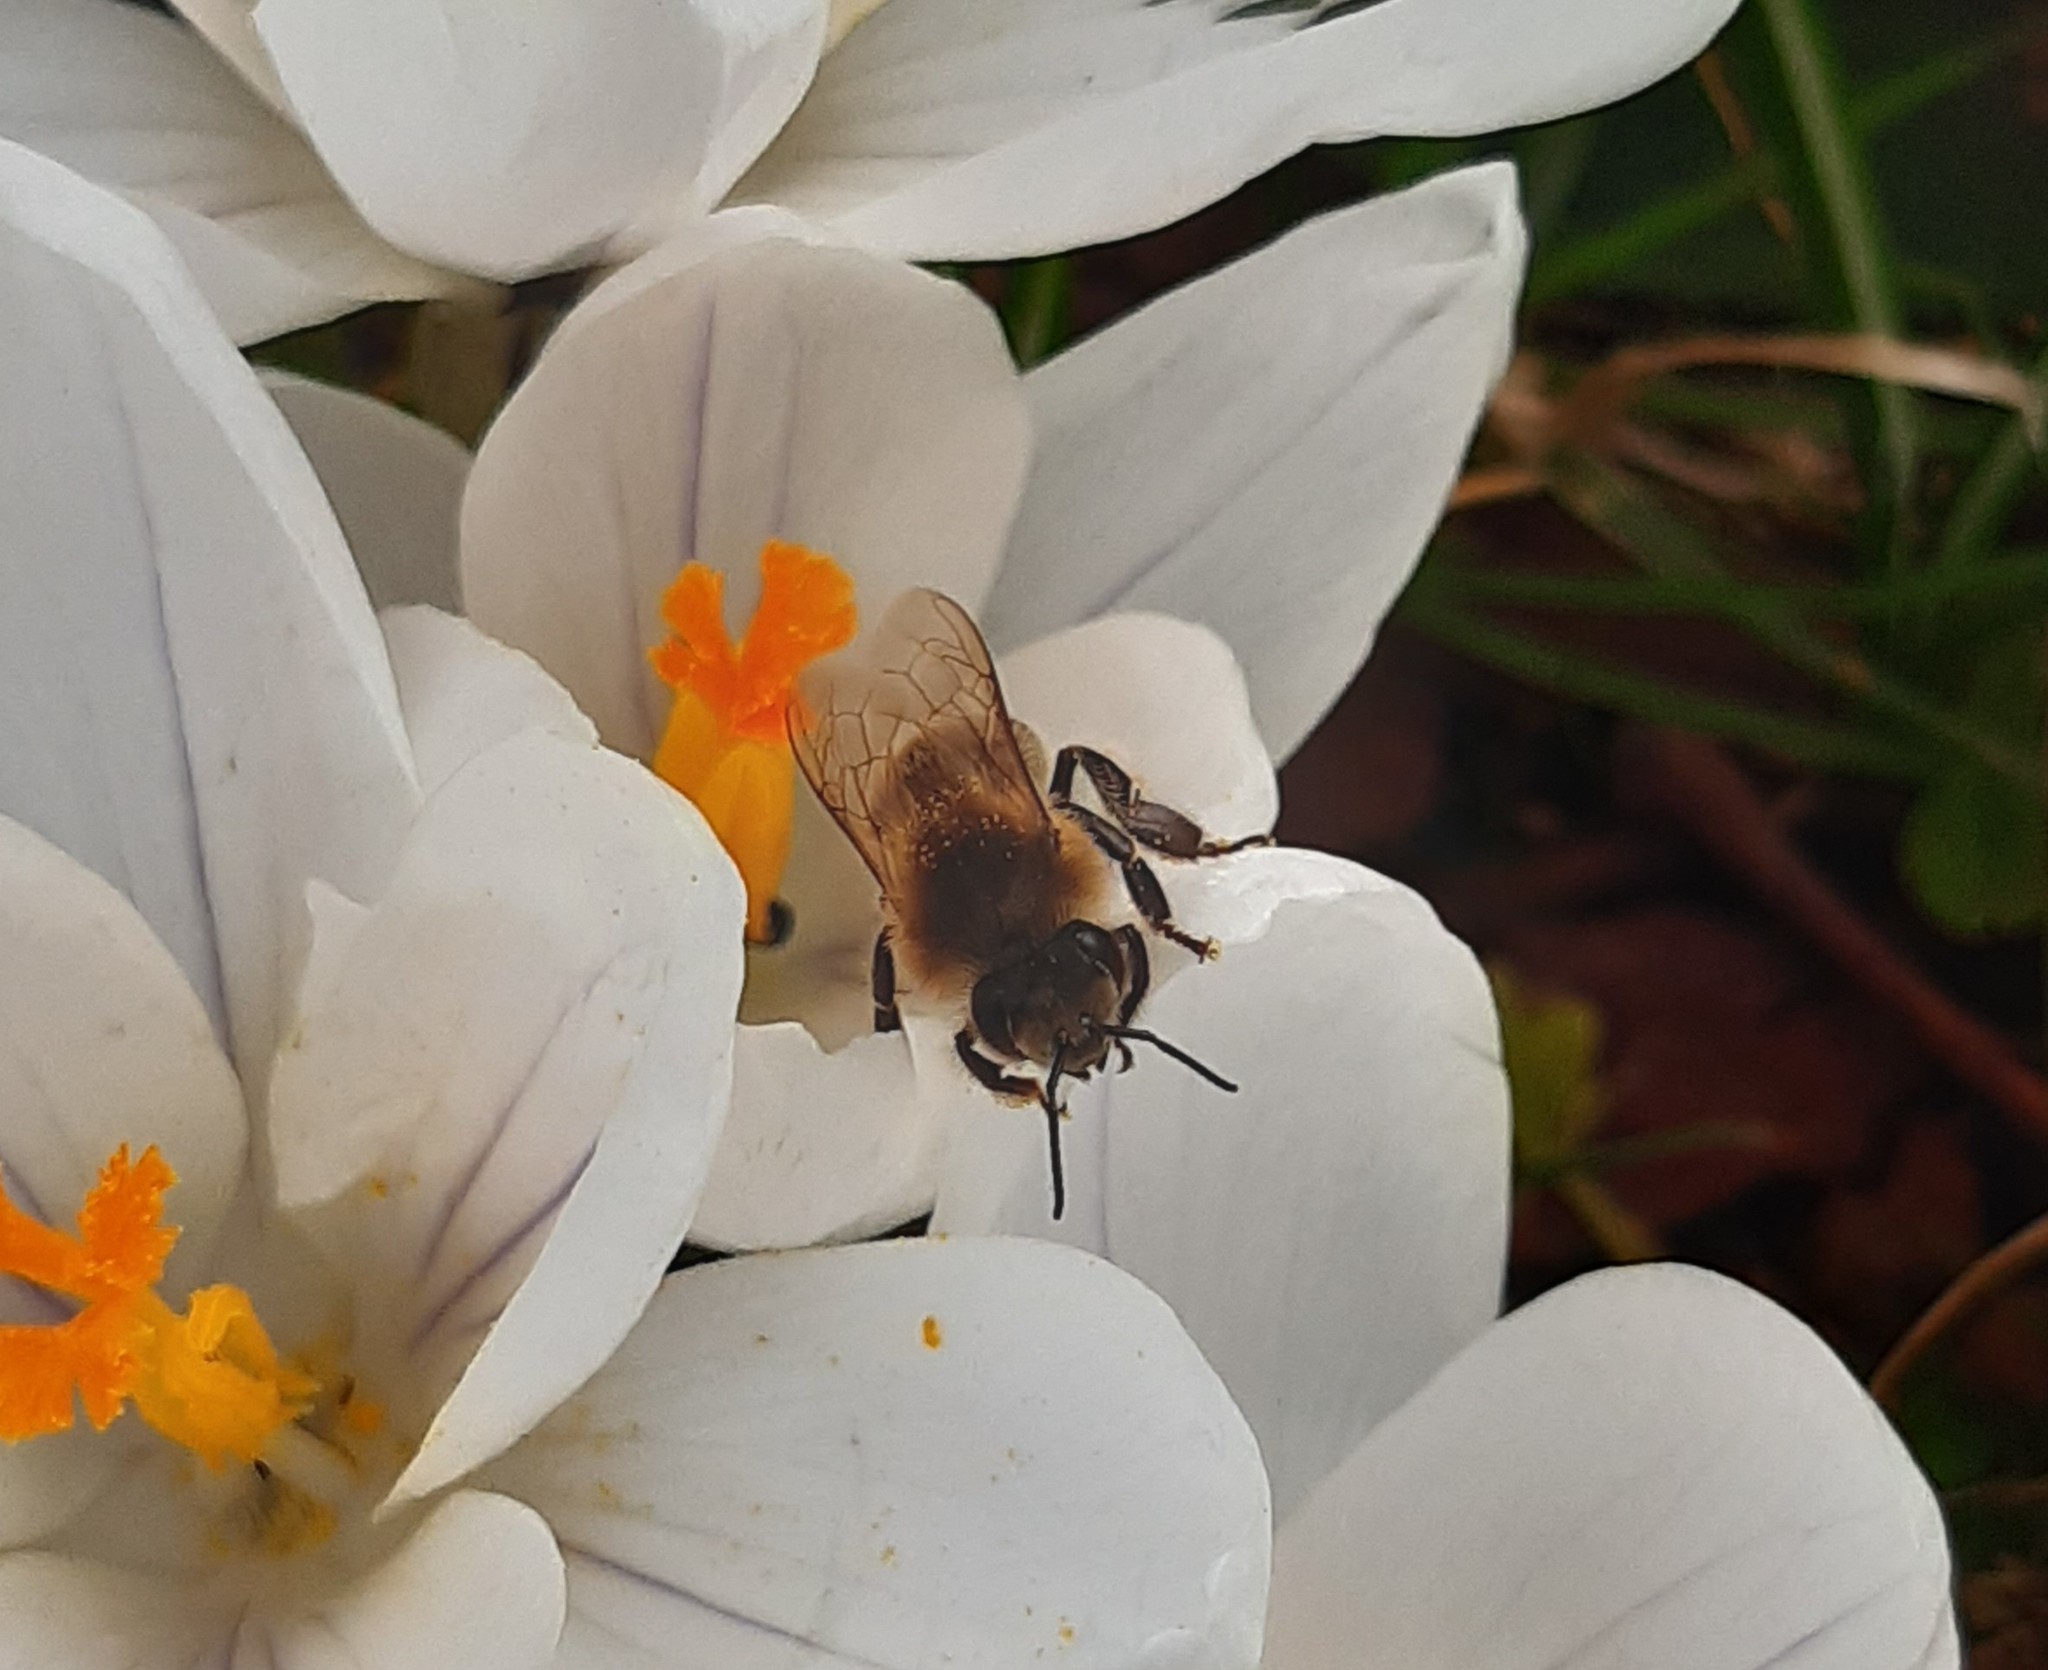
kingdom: Animalia
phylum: Arthropoda
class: Insecta
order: Hymenoptera
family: Apidae
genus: Apis
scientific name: Apis mellifera
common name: Honey bee
